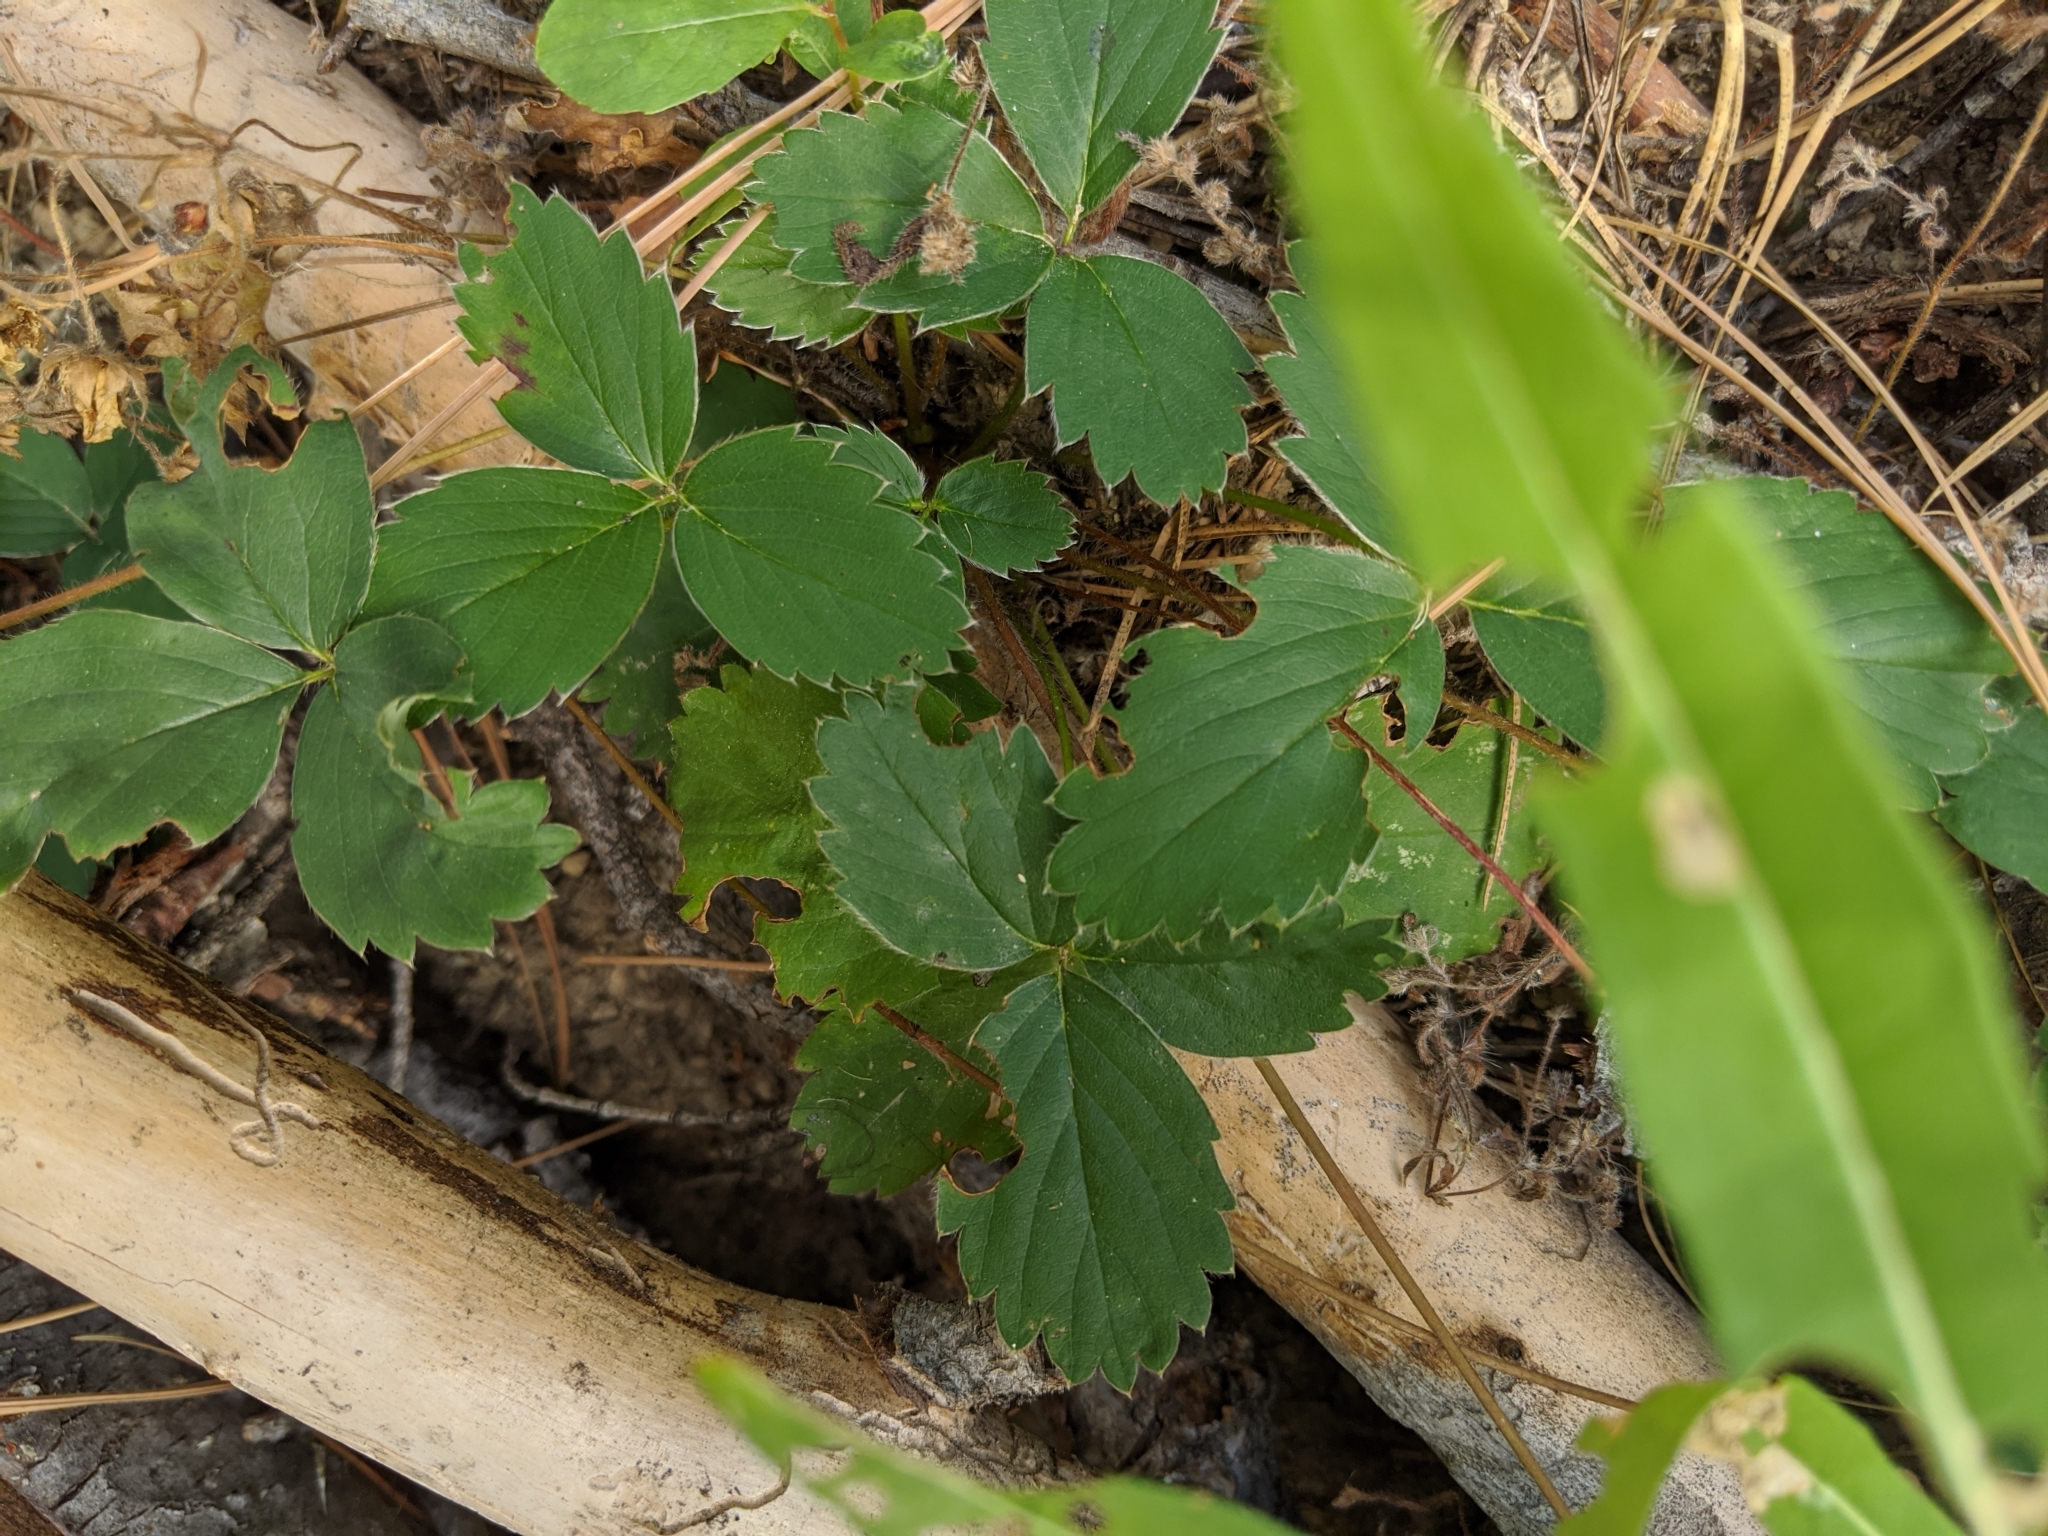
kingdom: Plantae
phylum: Tracheophyta
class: Magnoliopsida
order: Rosales
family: Rosaceae
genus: Fragaria
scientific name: Fragaria virginiana
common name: Thickleaved wild strawberry
